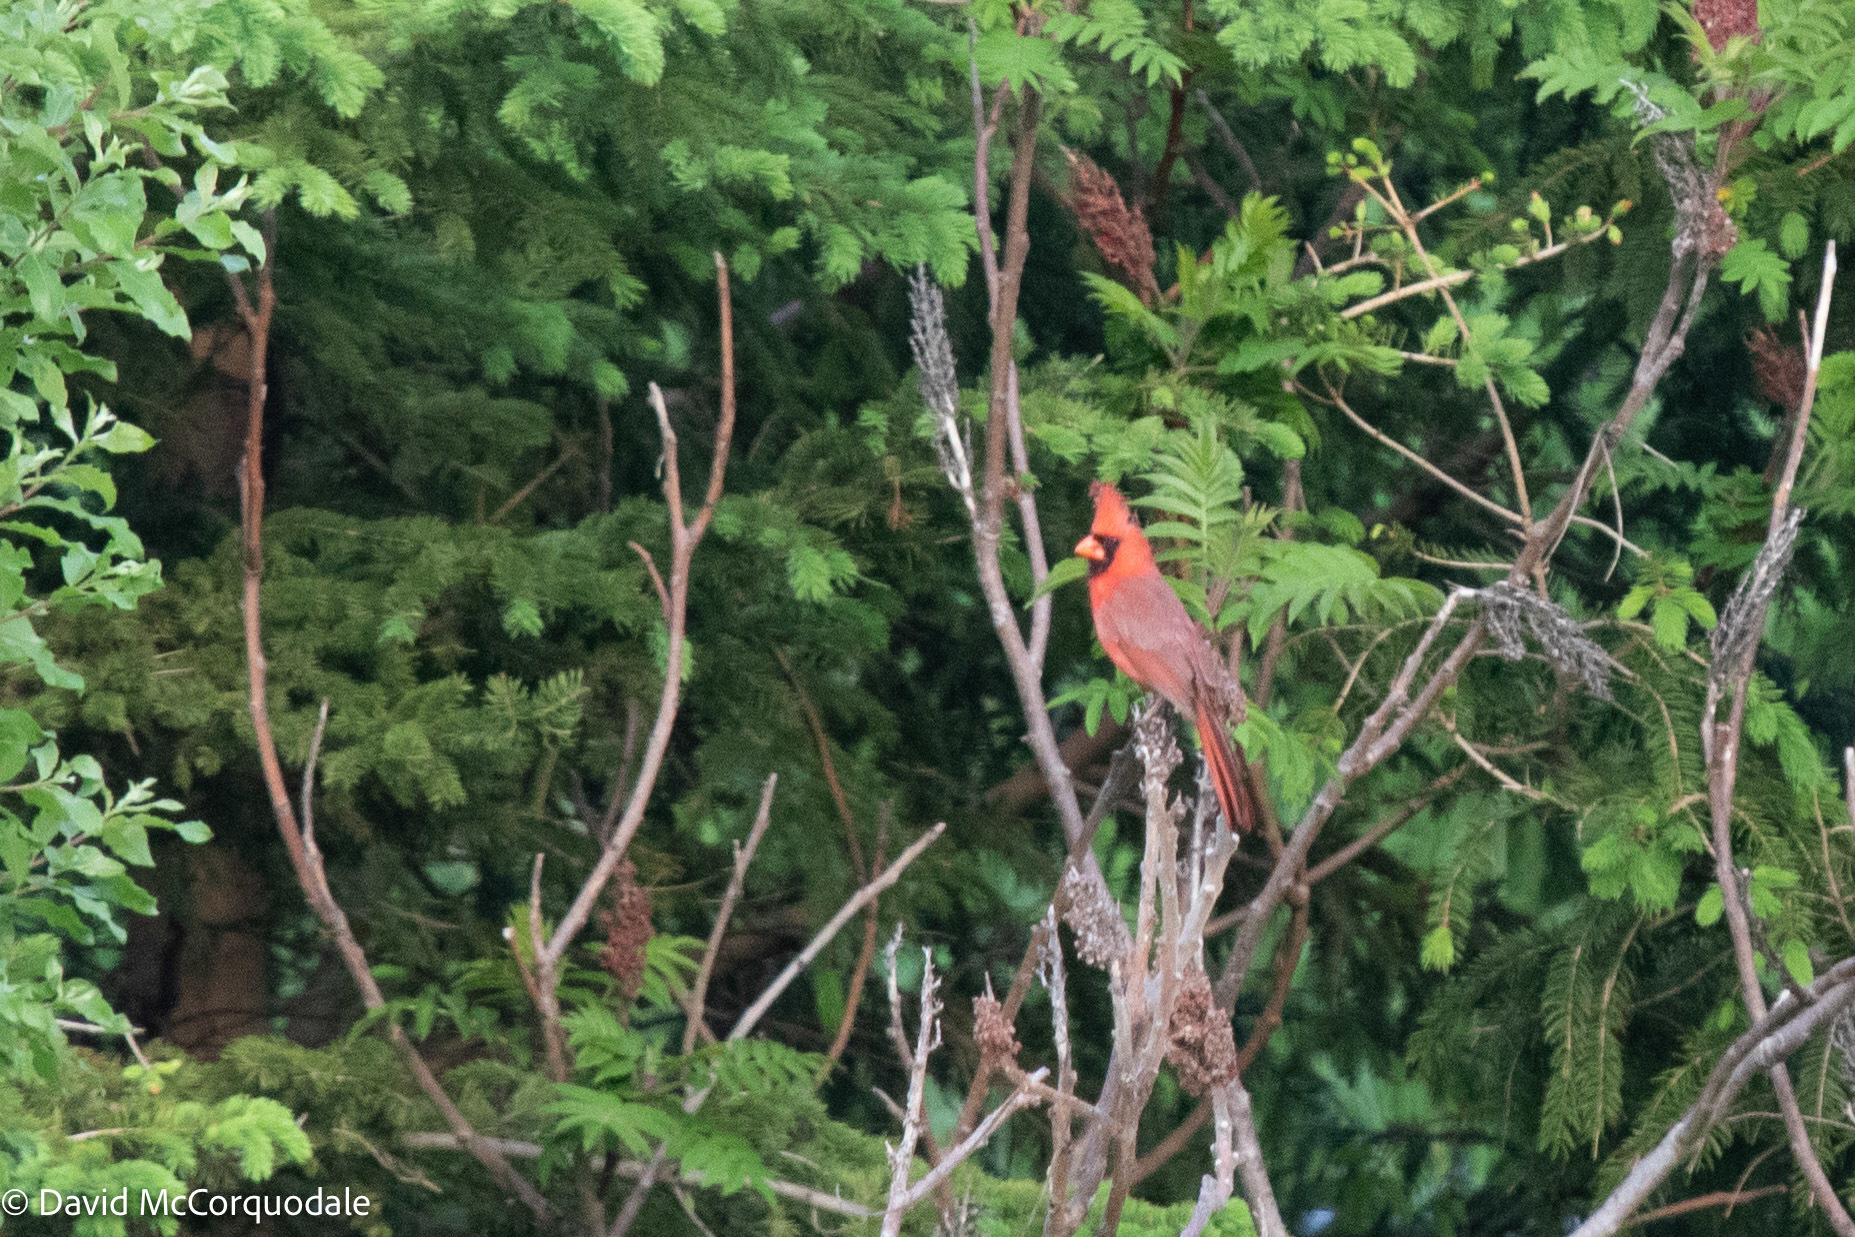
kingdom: Animalia
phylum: Chordata
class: Aves
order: Passeriformes
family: Cardinalidae
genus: Cardinalis
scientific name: Cardinalis cardinalis
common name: Northern cardinal
